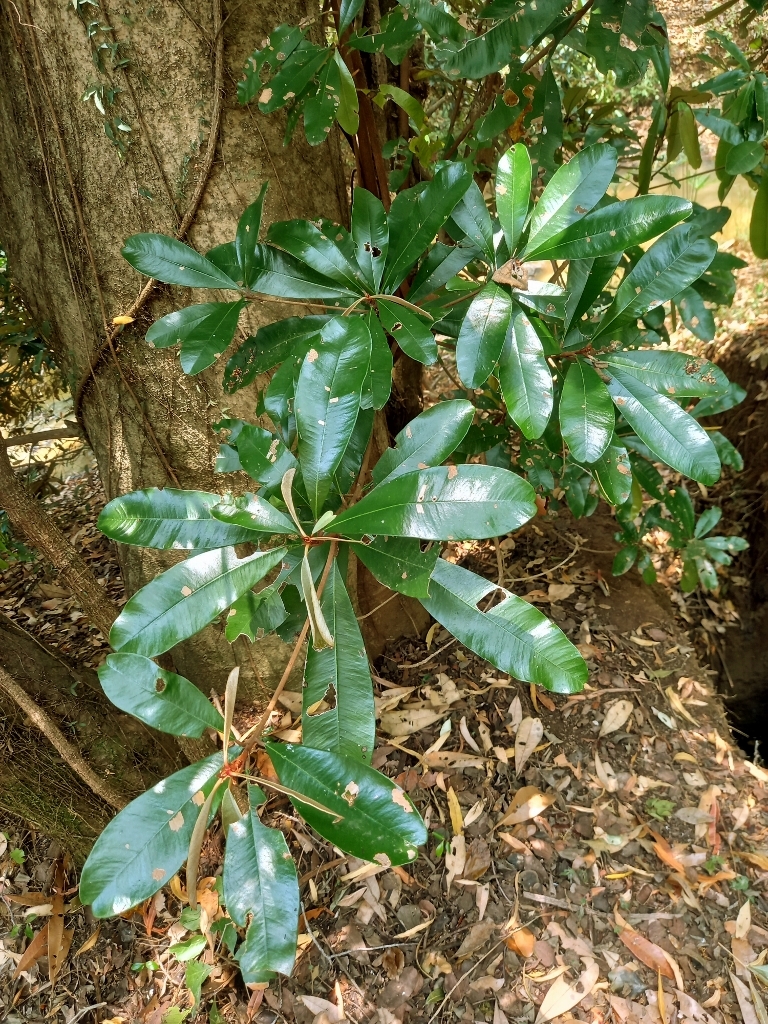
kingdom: Plantae
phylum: Tracheophyta
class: Magnoliopsida
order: Ericales
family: Sapotaceae
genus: Englerophytum
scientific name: Englerophytum magalismontanum
